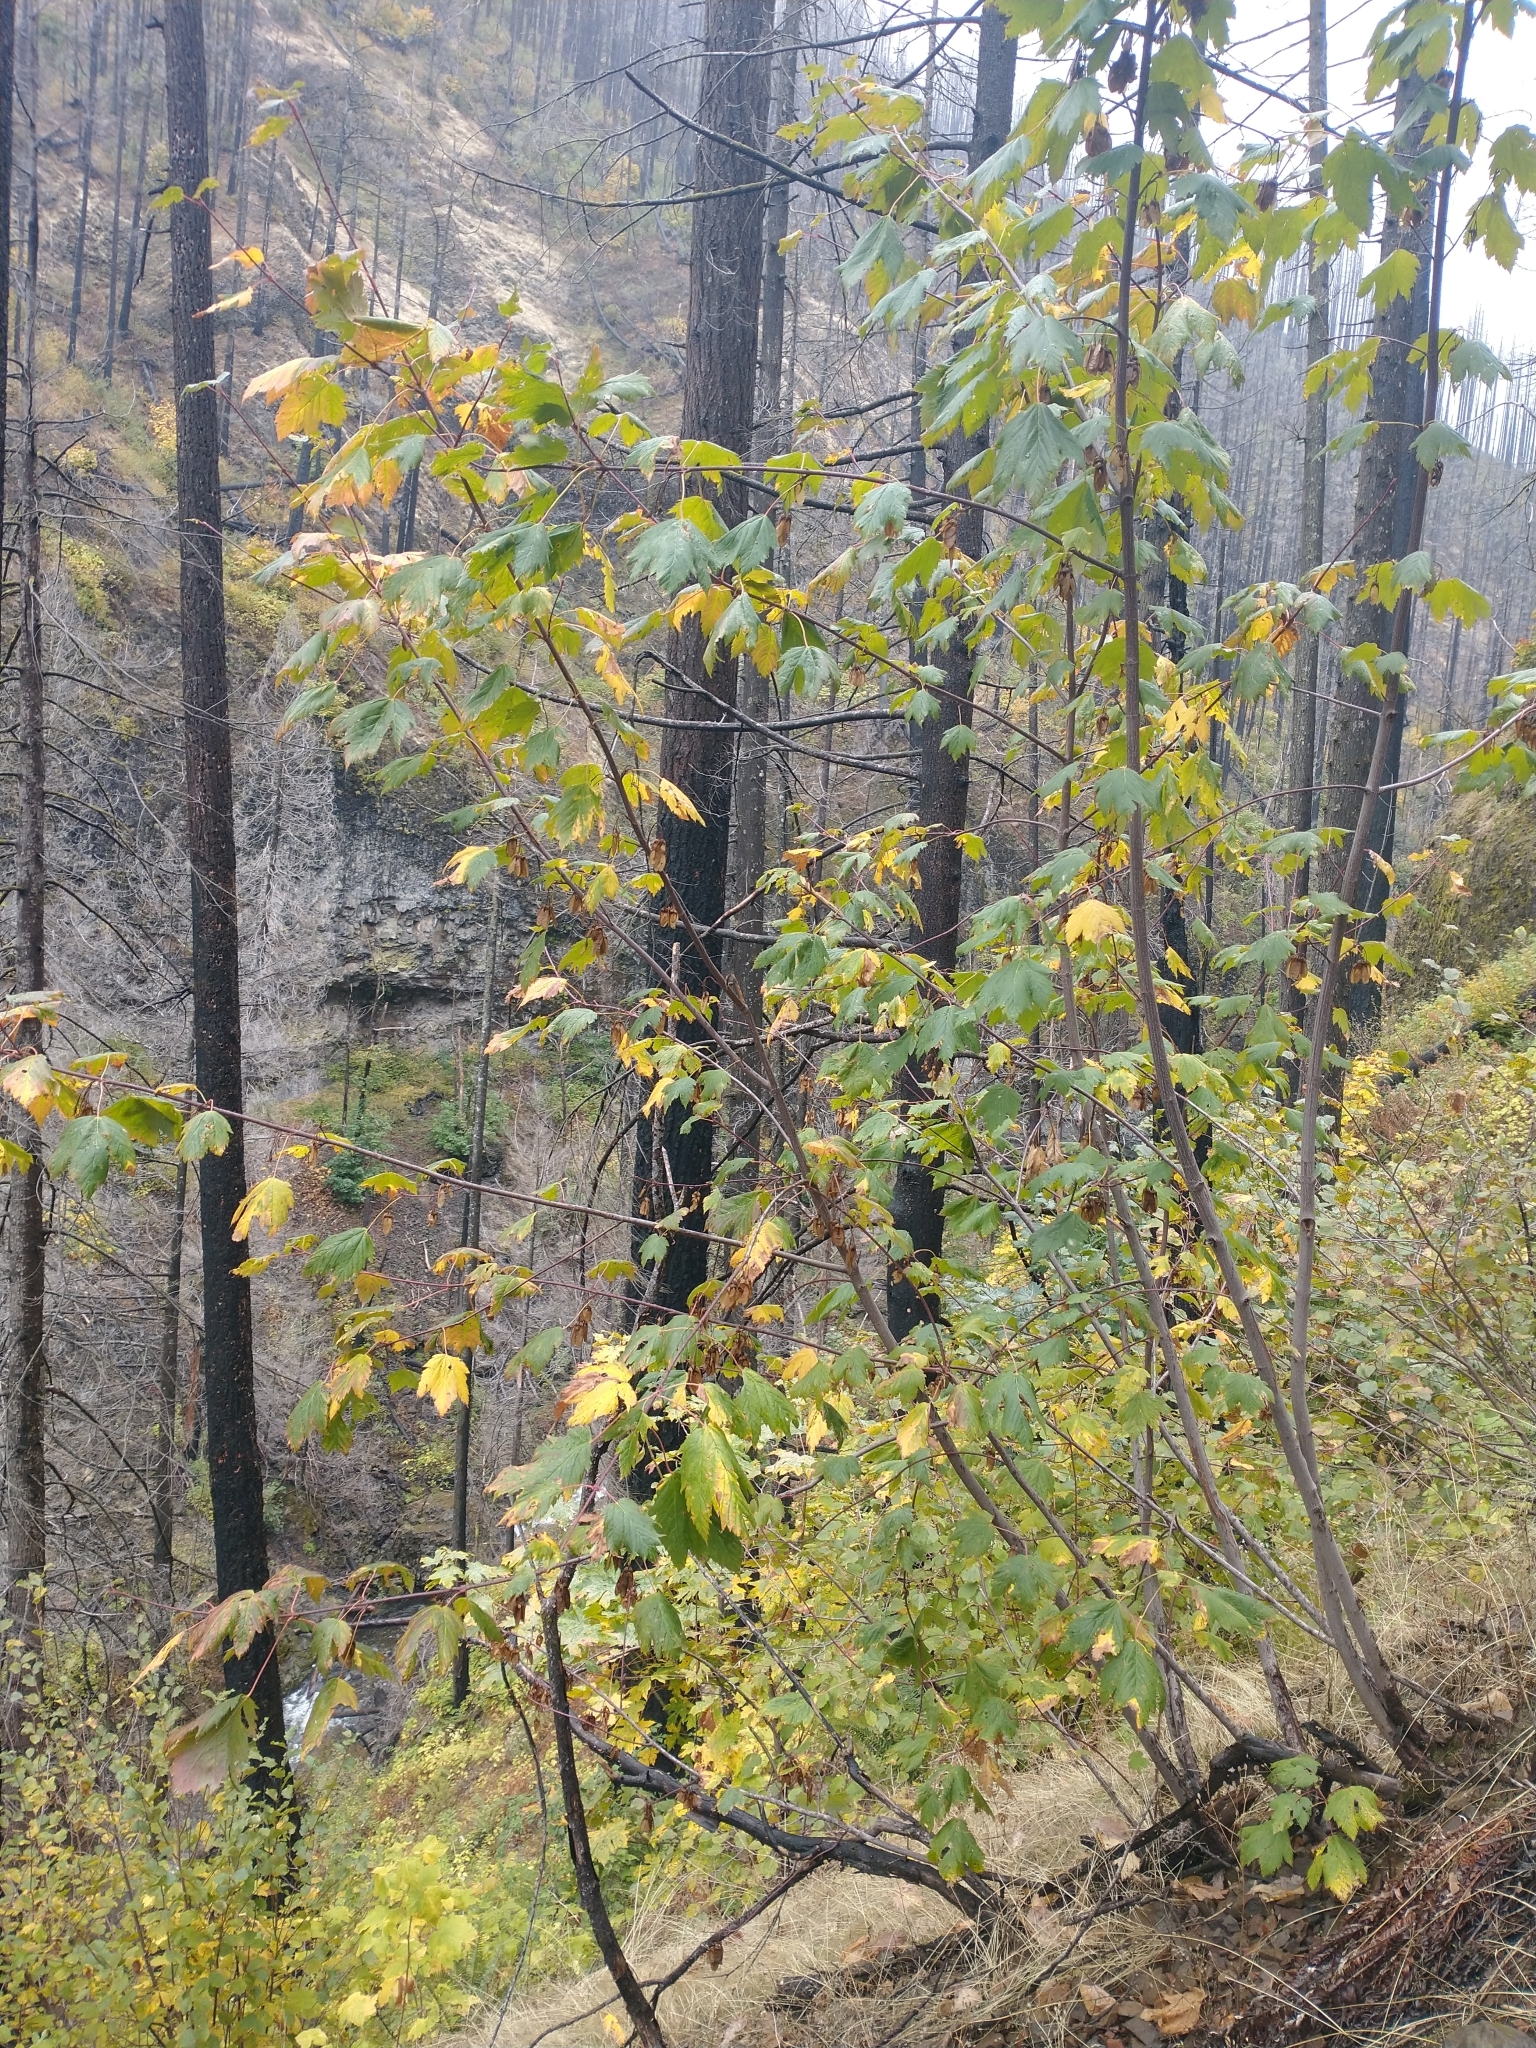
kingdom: Plantae
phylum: Tracheophyta
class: Magnoliopsida
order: Sapindales
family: Sapindaceae
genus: Acer
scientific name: Acer glabrum
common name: Rocky mountain maple
